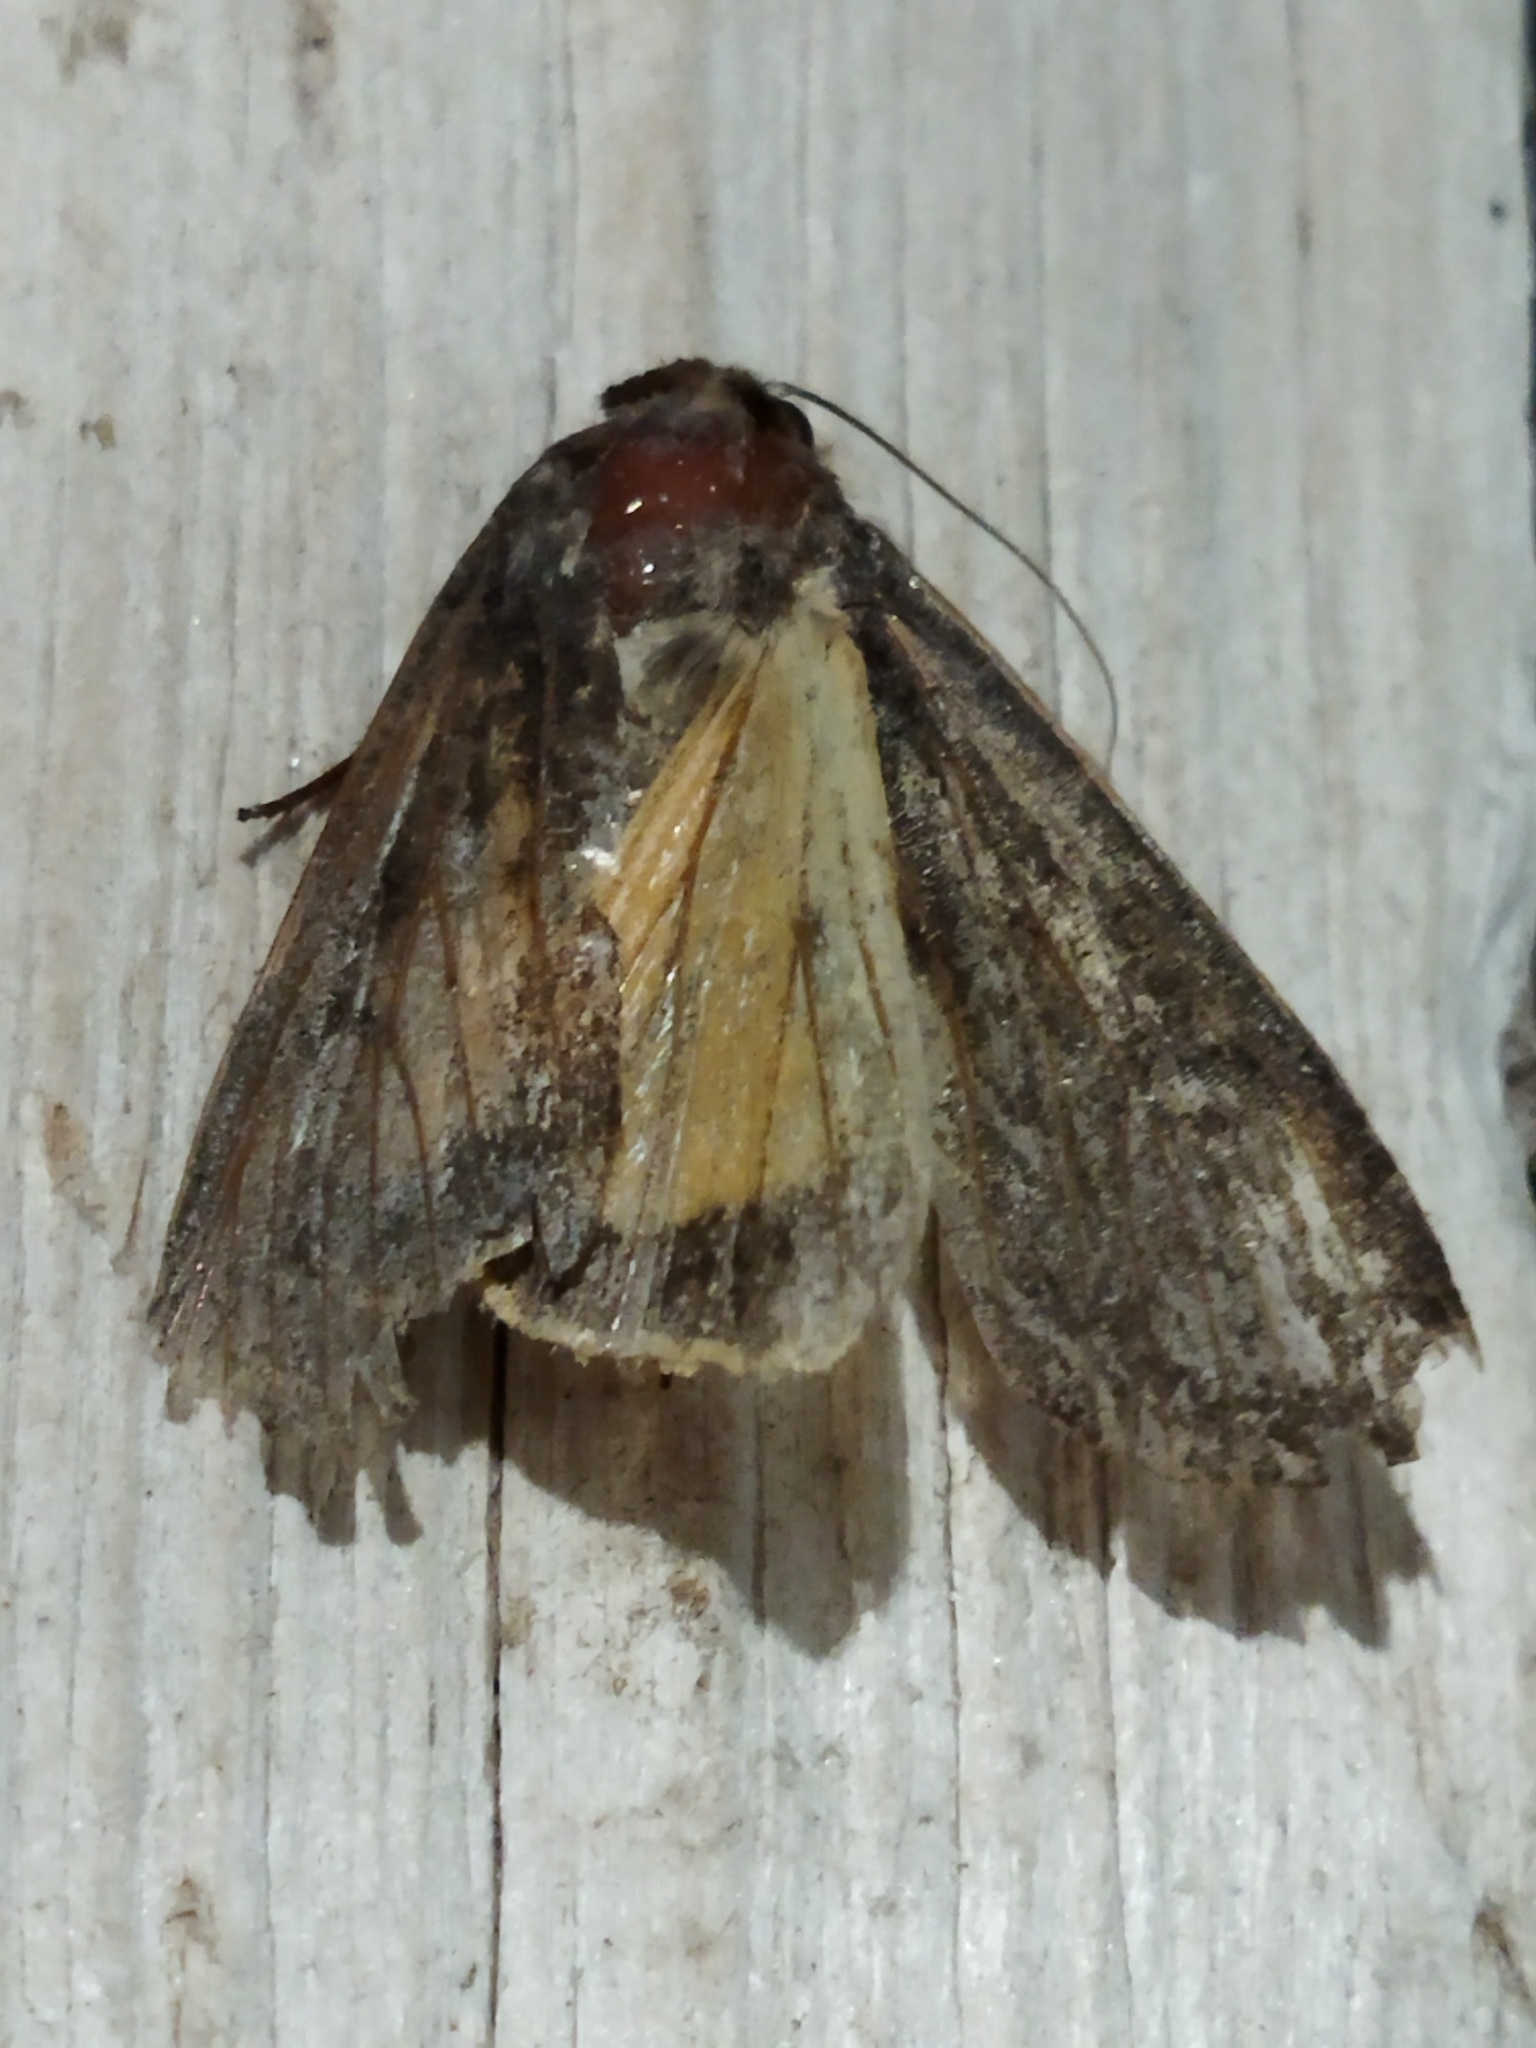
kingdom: Animalia
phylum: Arthropoda
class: Insecta
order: Lepidoptera
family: Noctuidae
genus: Noctua
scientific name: Noctua pronuba
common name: Large yellow underwing
